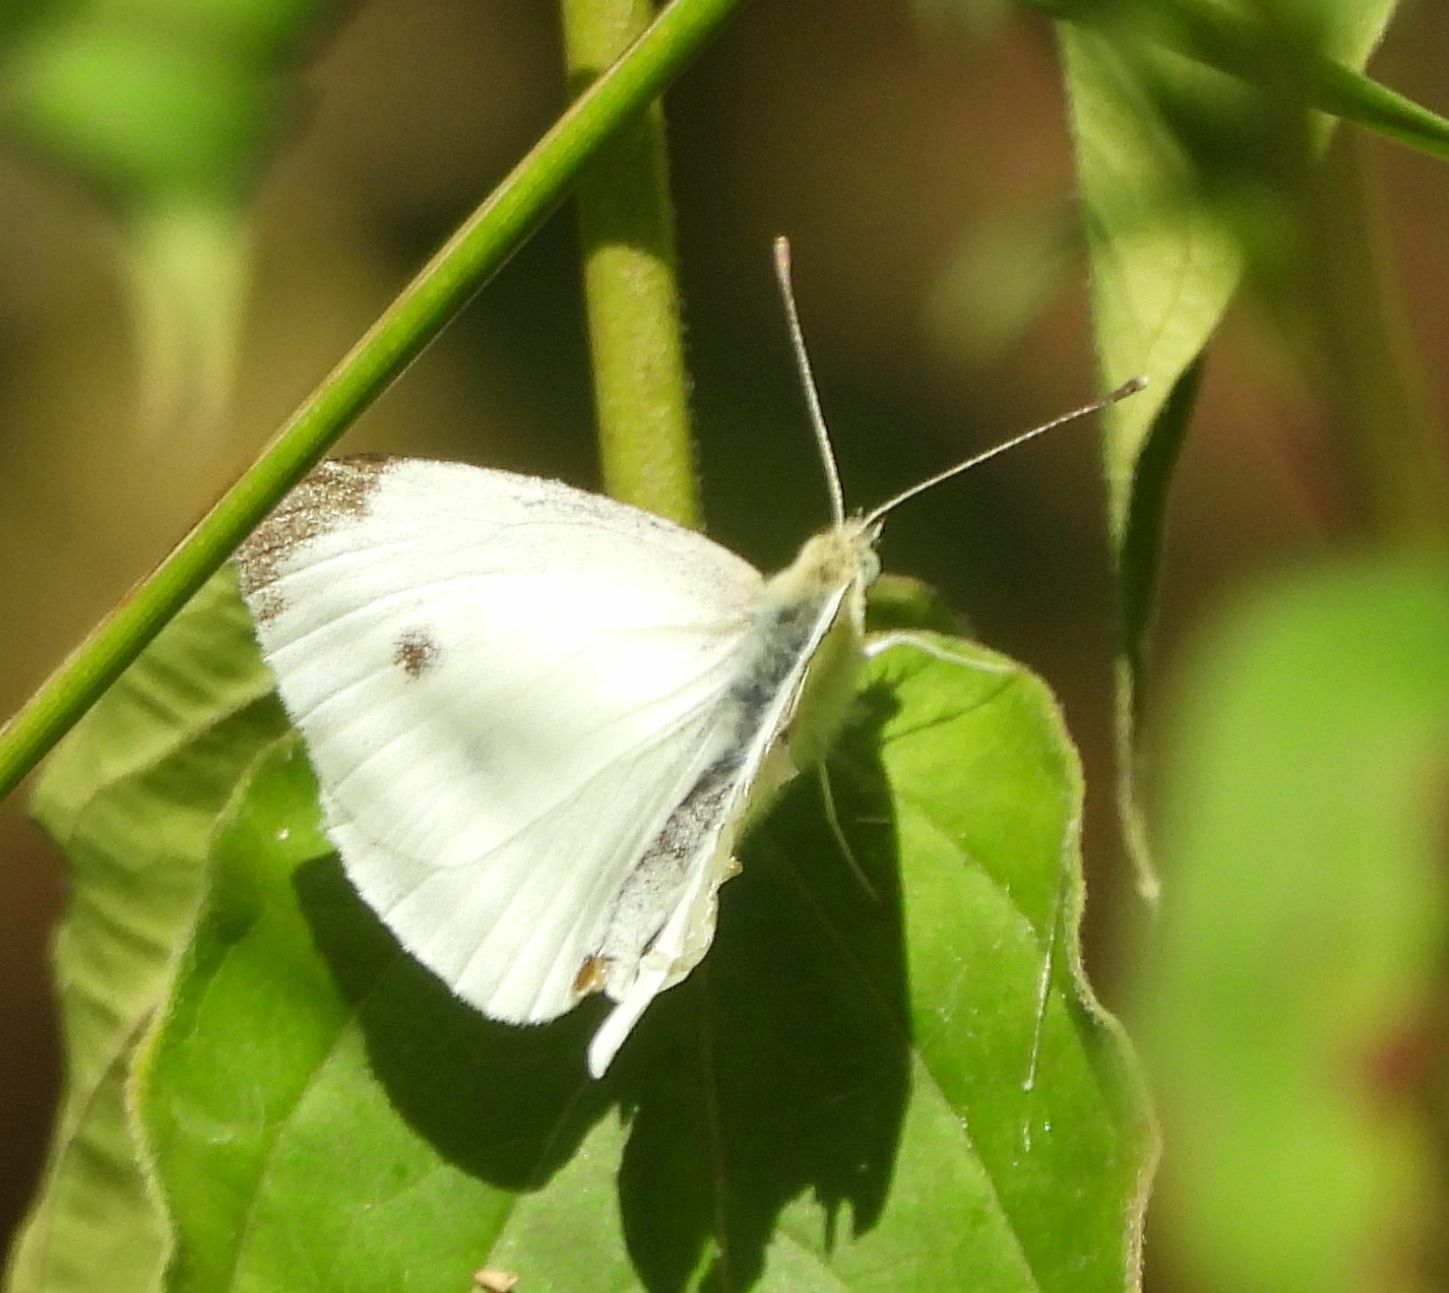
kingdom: Animalia
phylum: Arthropoda
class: Insecta
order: Lepidoptera
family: Pieridae
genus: Pieris
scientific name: Pieris rapae
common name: Small white
